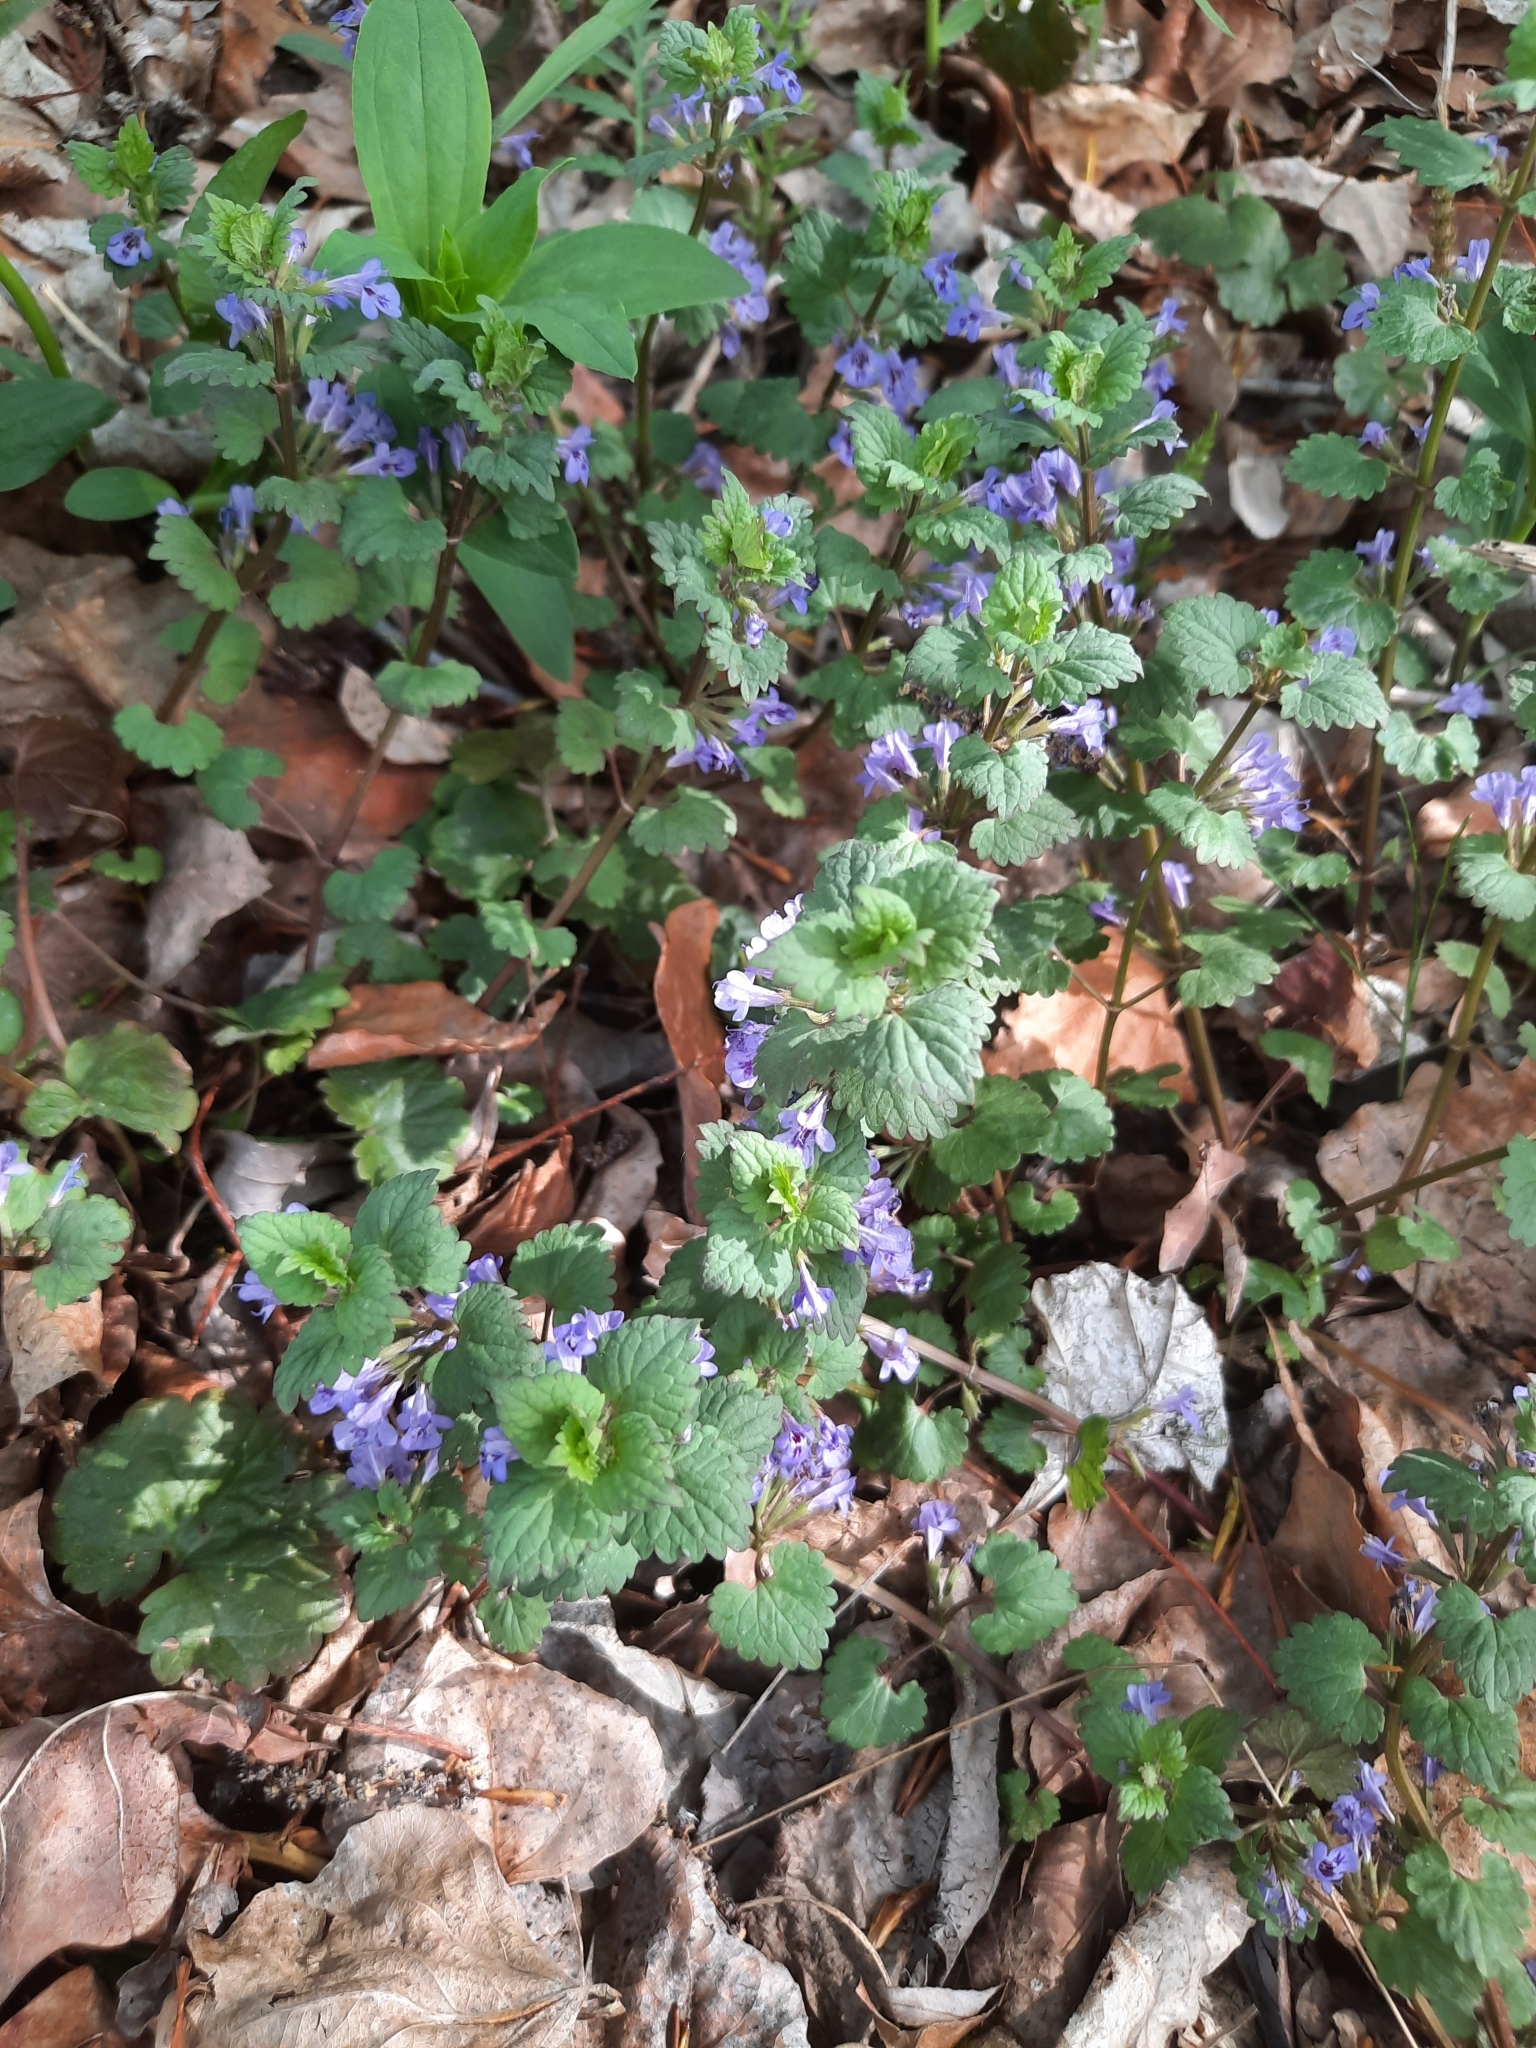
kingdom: Plantae
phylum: Tracheophyta
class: Magnoliopsida
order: Lamiales
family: Lamiaceae
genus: Glechoma
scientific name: Glechoma hederacea
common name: Ground ivy
